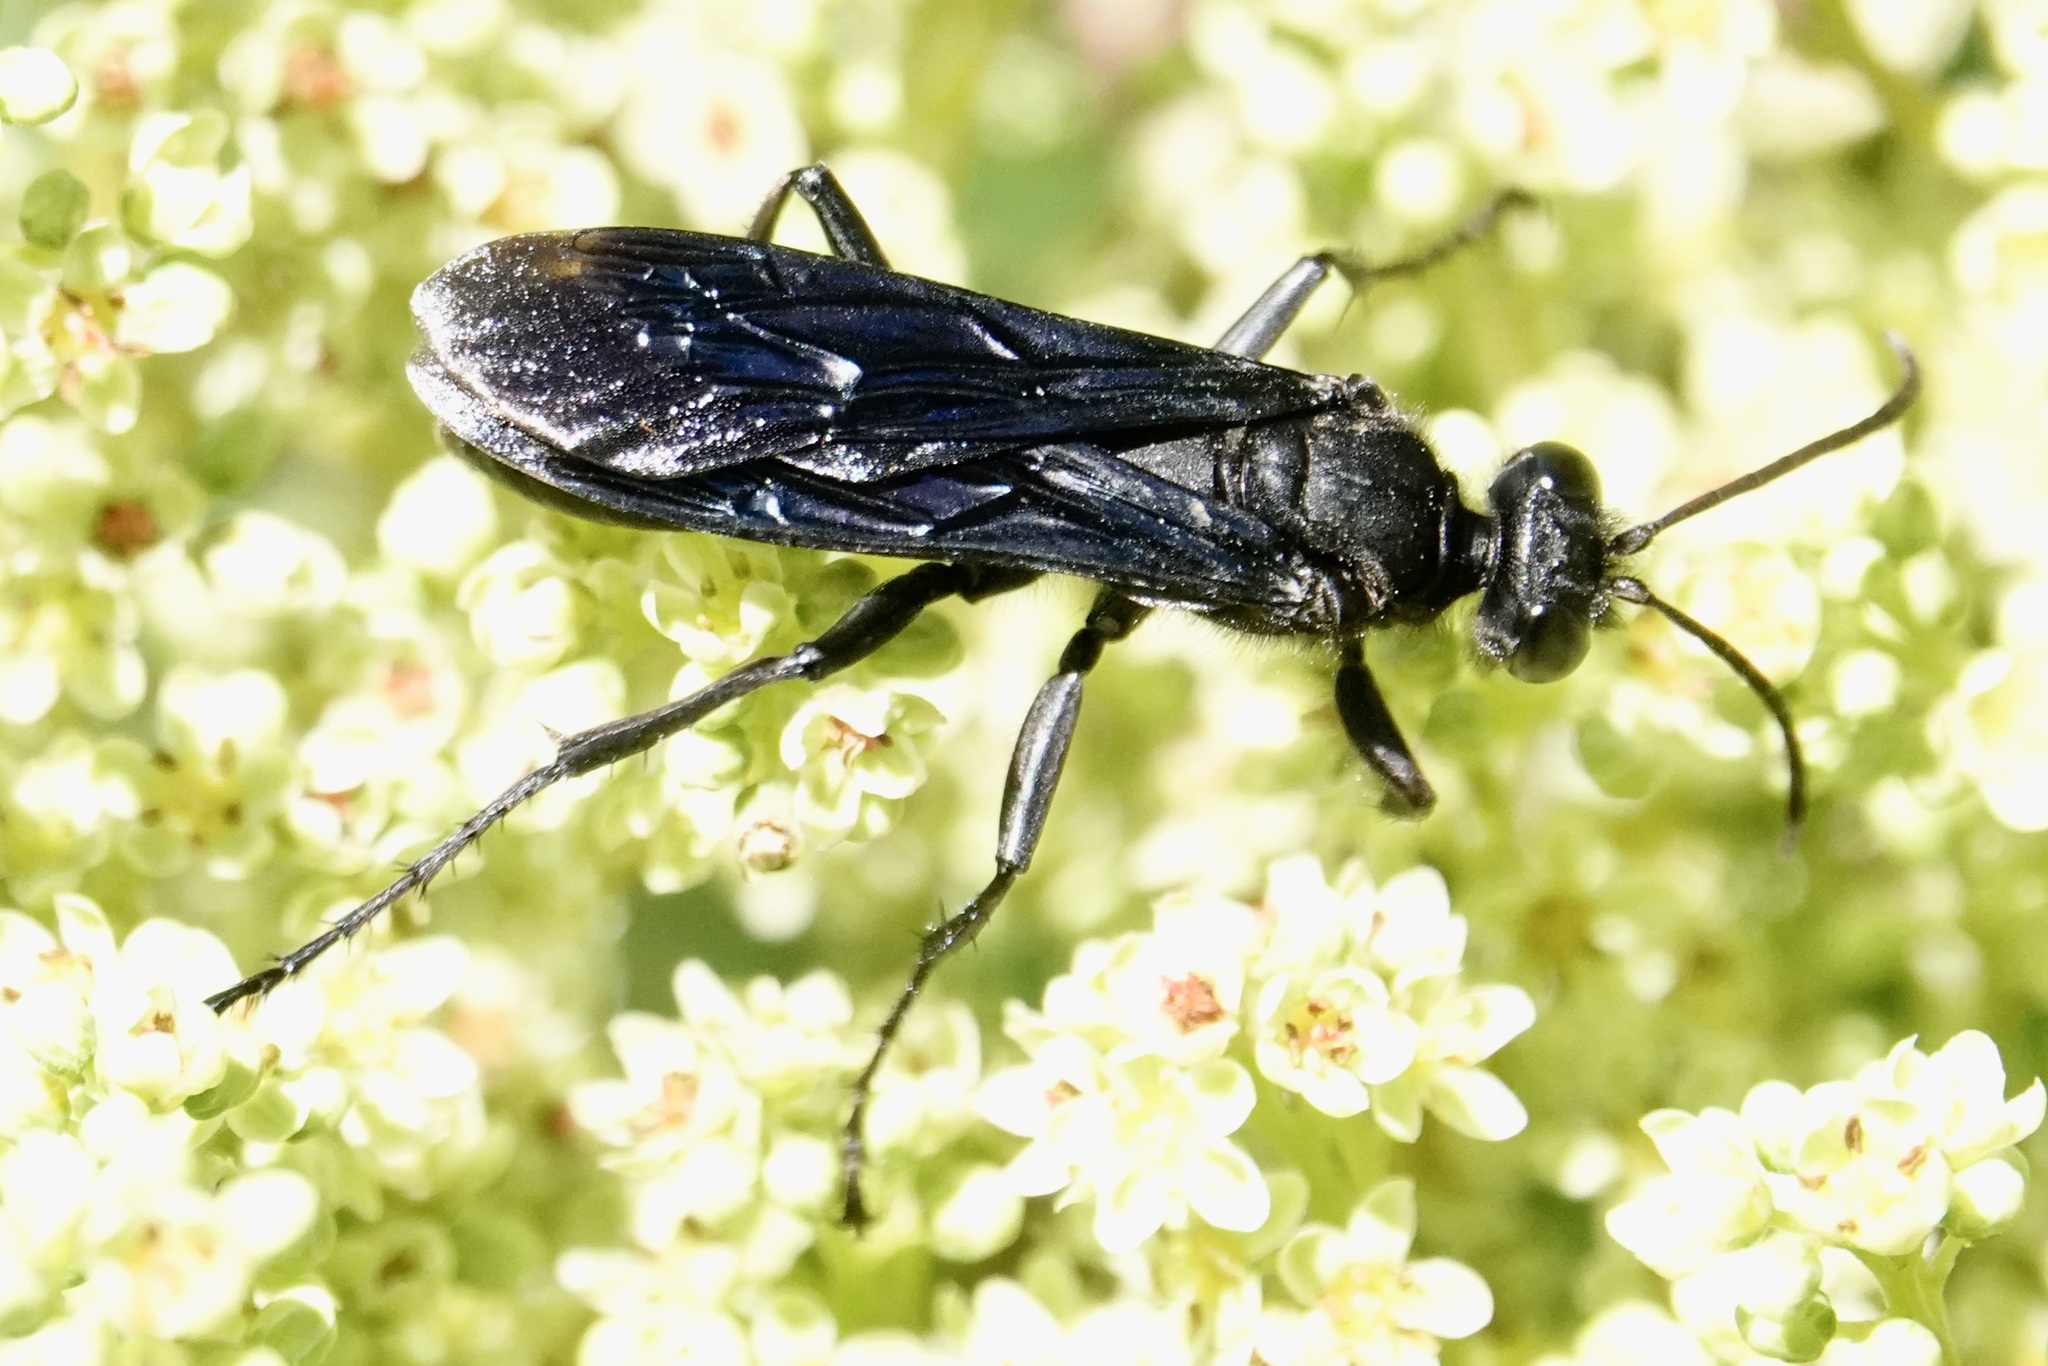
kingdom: Animalia
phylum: Arthropoda
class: Insecta
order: Hymenoptera
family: Sphecidae
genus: Sphex
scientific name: Sphex pensylvanicus
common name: Great black digger wasp
